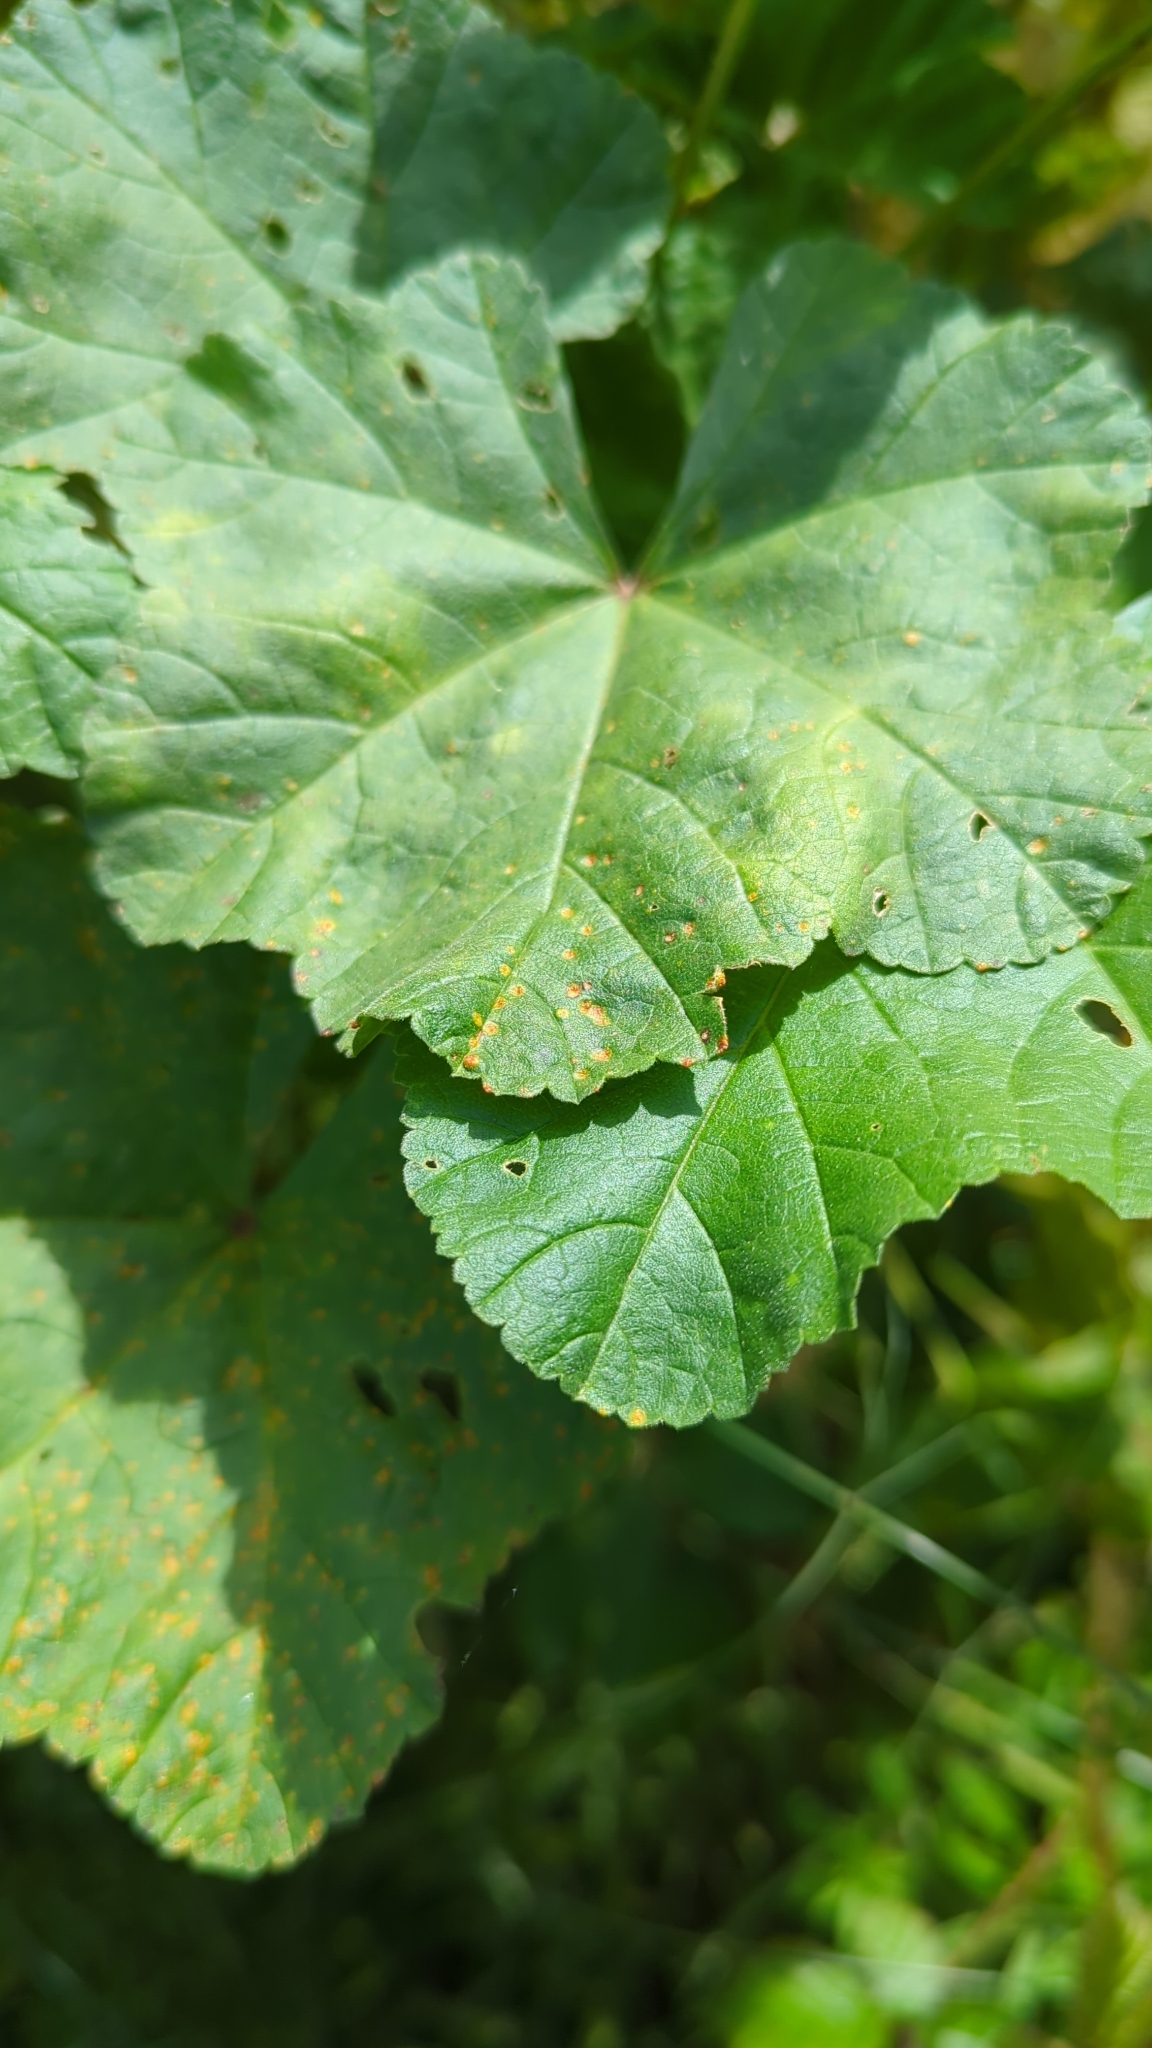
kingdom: Fungi
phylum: Basidiomycota
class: Pucciniomycetes
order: Pucciniales
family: Pucciniaceae
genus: Puccinia
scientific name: Puccinia malvacearum
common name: Hollyhock rust
